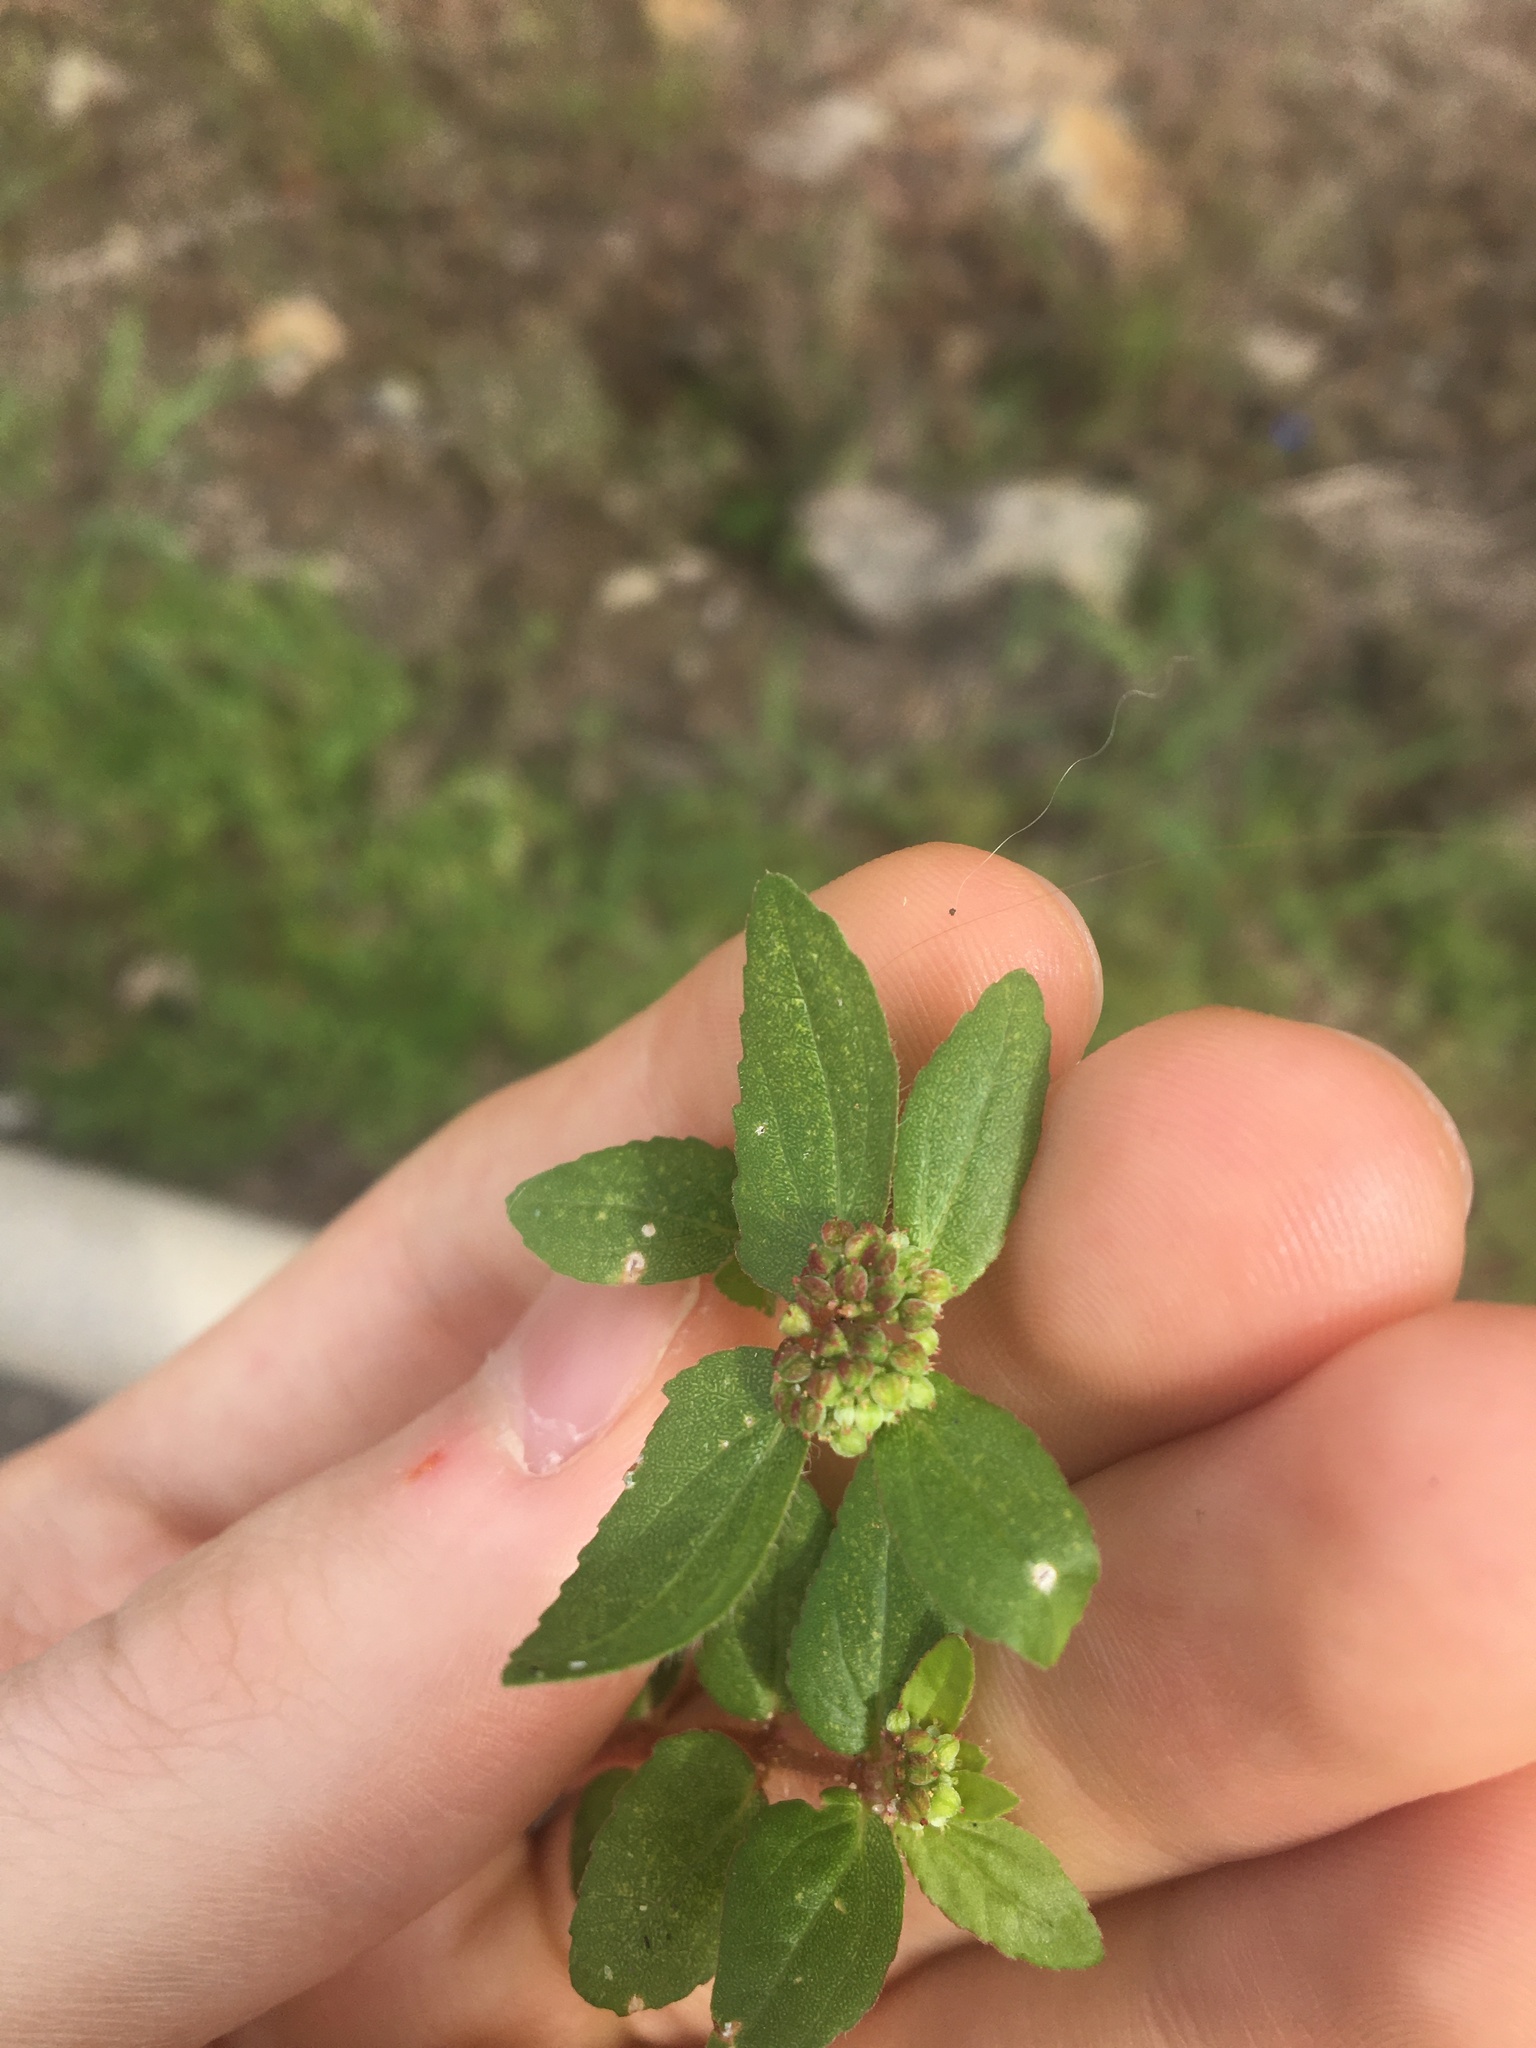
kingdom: Plantae
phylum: Tracheophyta
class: Magnoliopsida
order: Malpighiales
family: Euphorbiaceae
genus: Euphorbia
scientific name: Euphorbia ophthalmica
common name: Florida hammock sandmat
